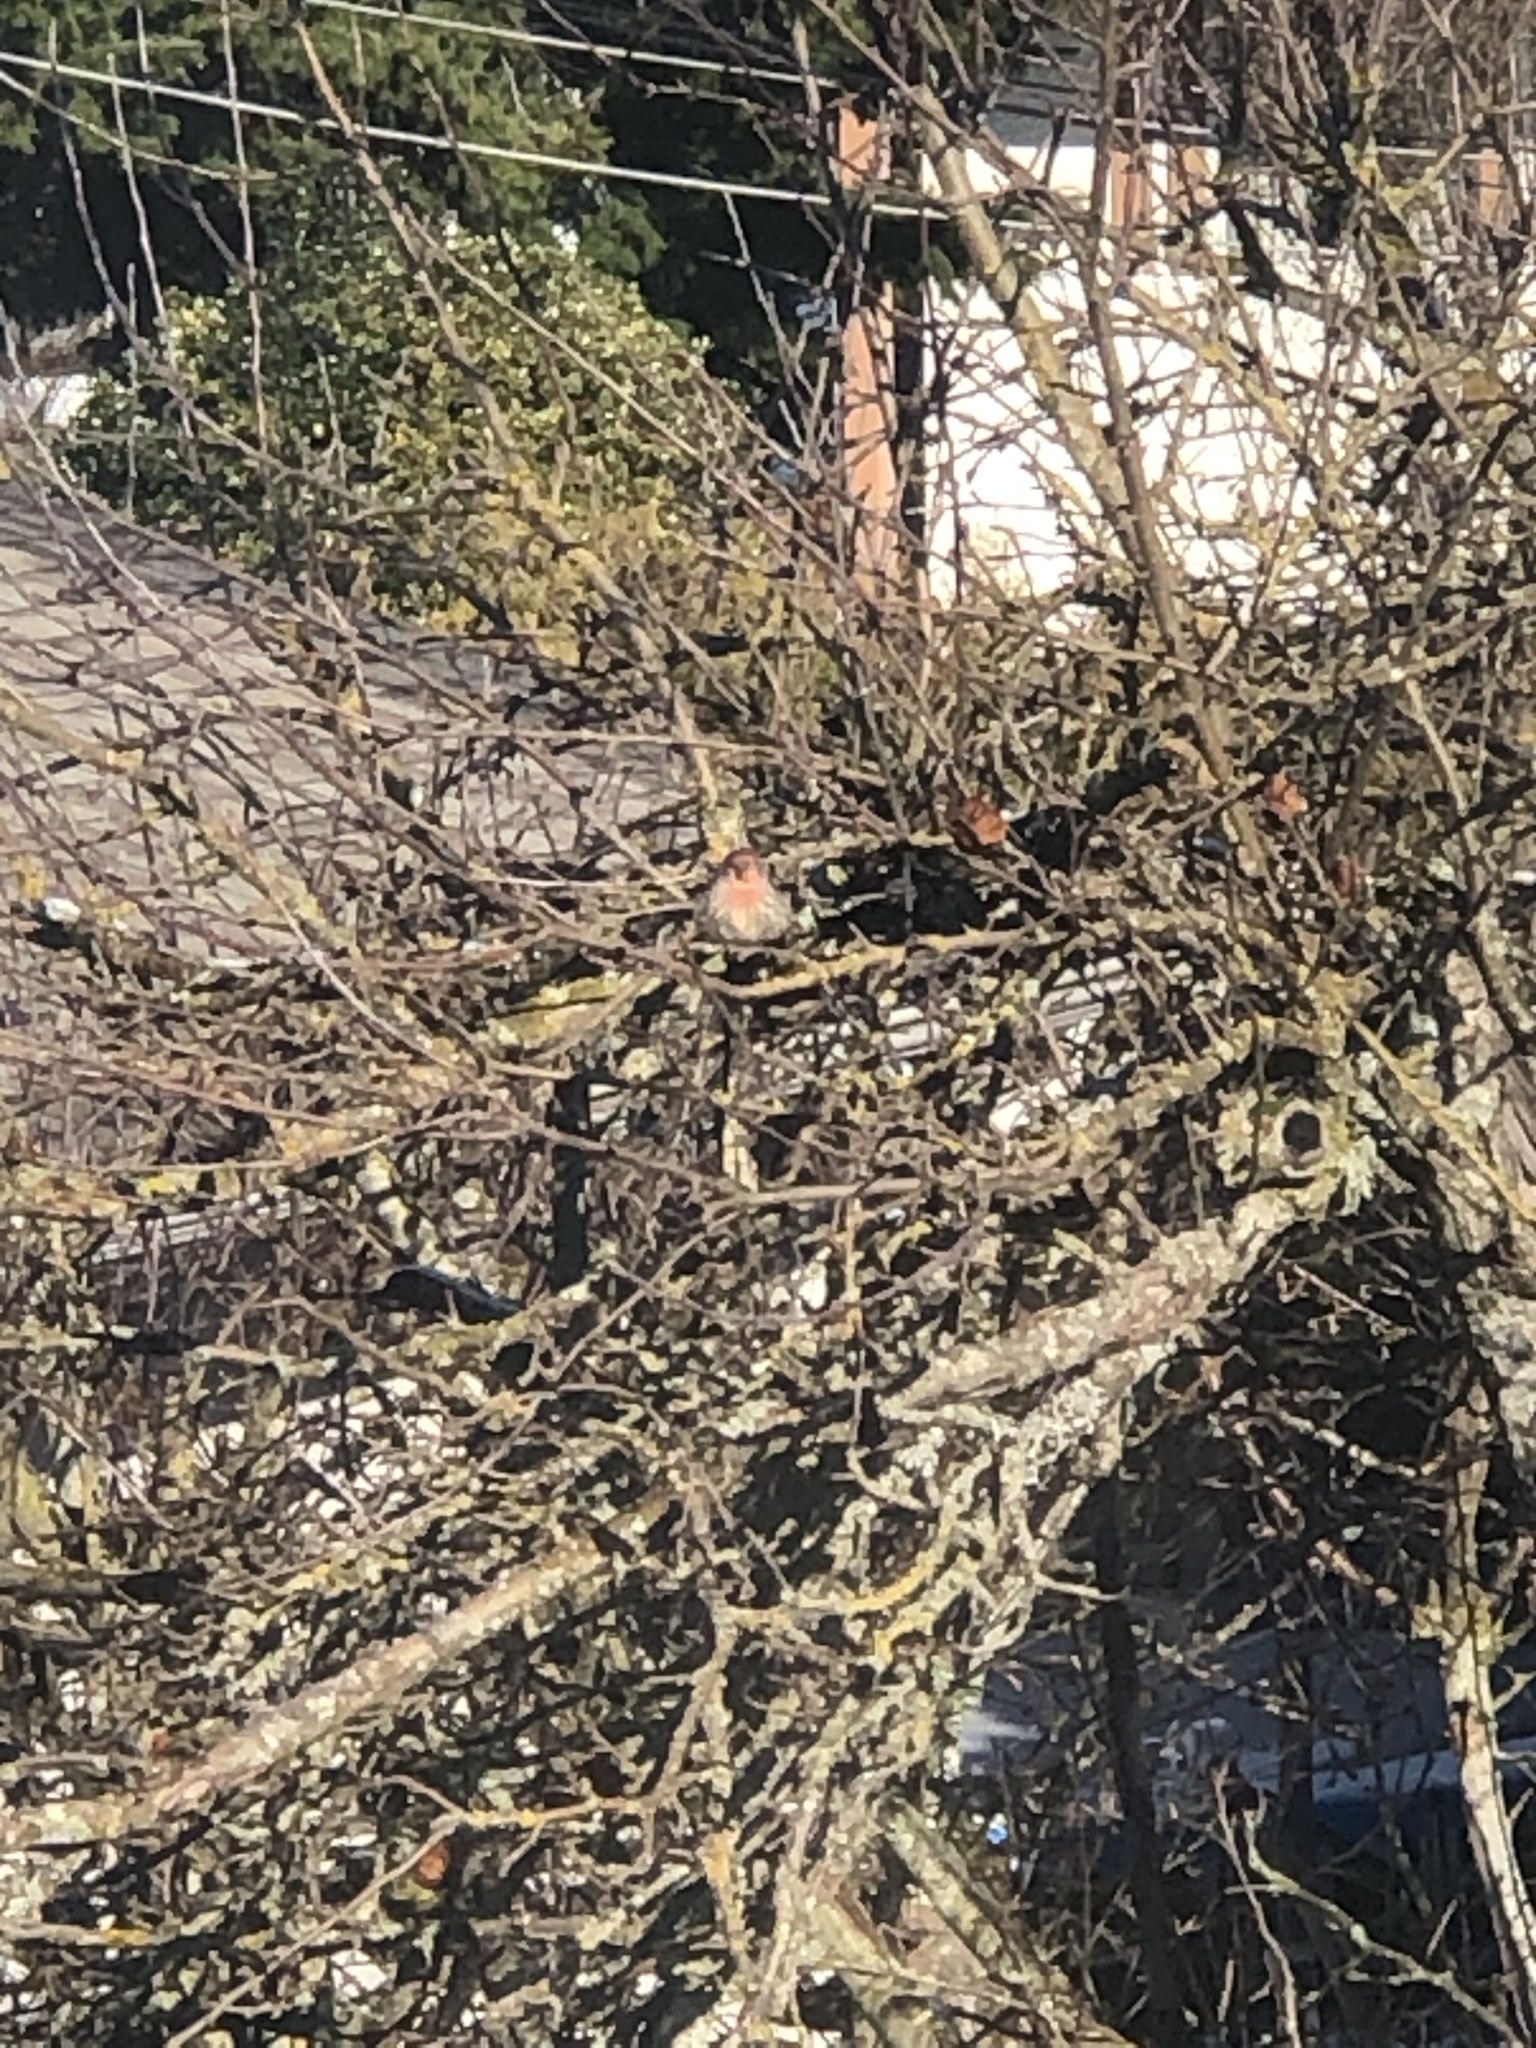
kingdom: Animalia
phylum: Chordata
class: Aves
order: Passeriformes
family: Fringillidae
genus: Haemorhous
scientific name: Haemorhous mexicanus
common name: House finch
